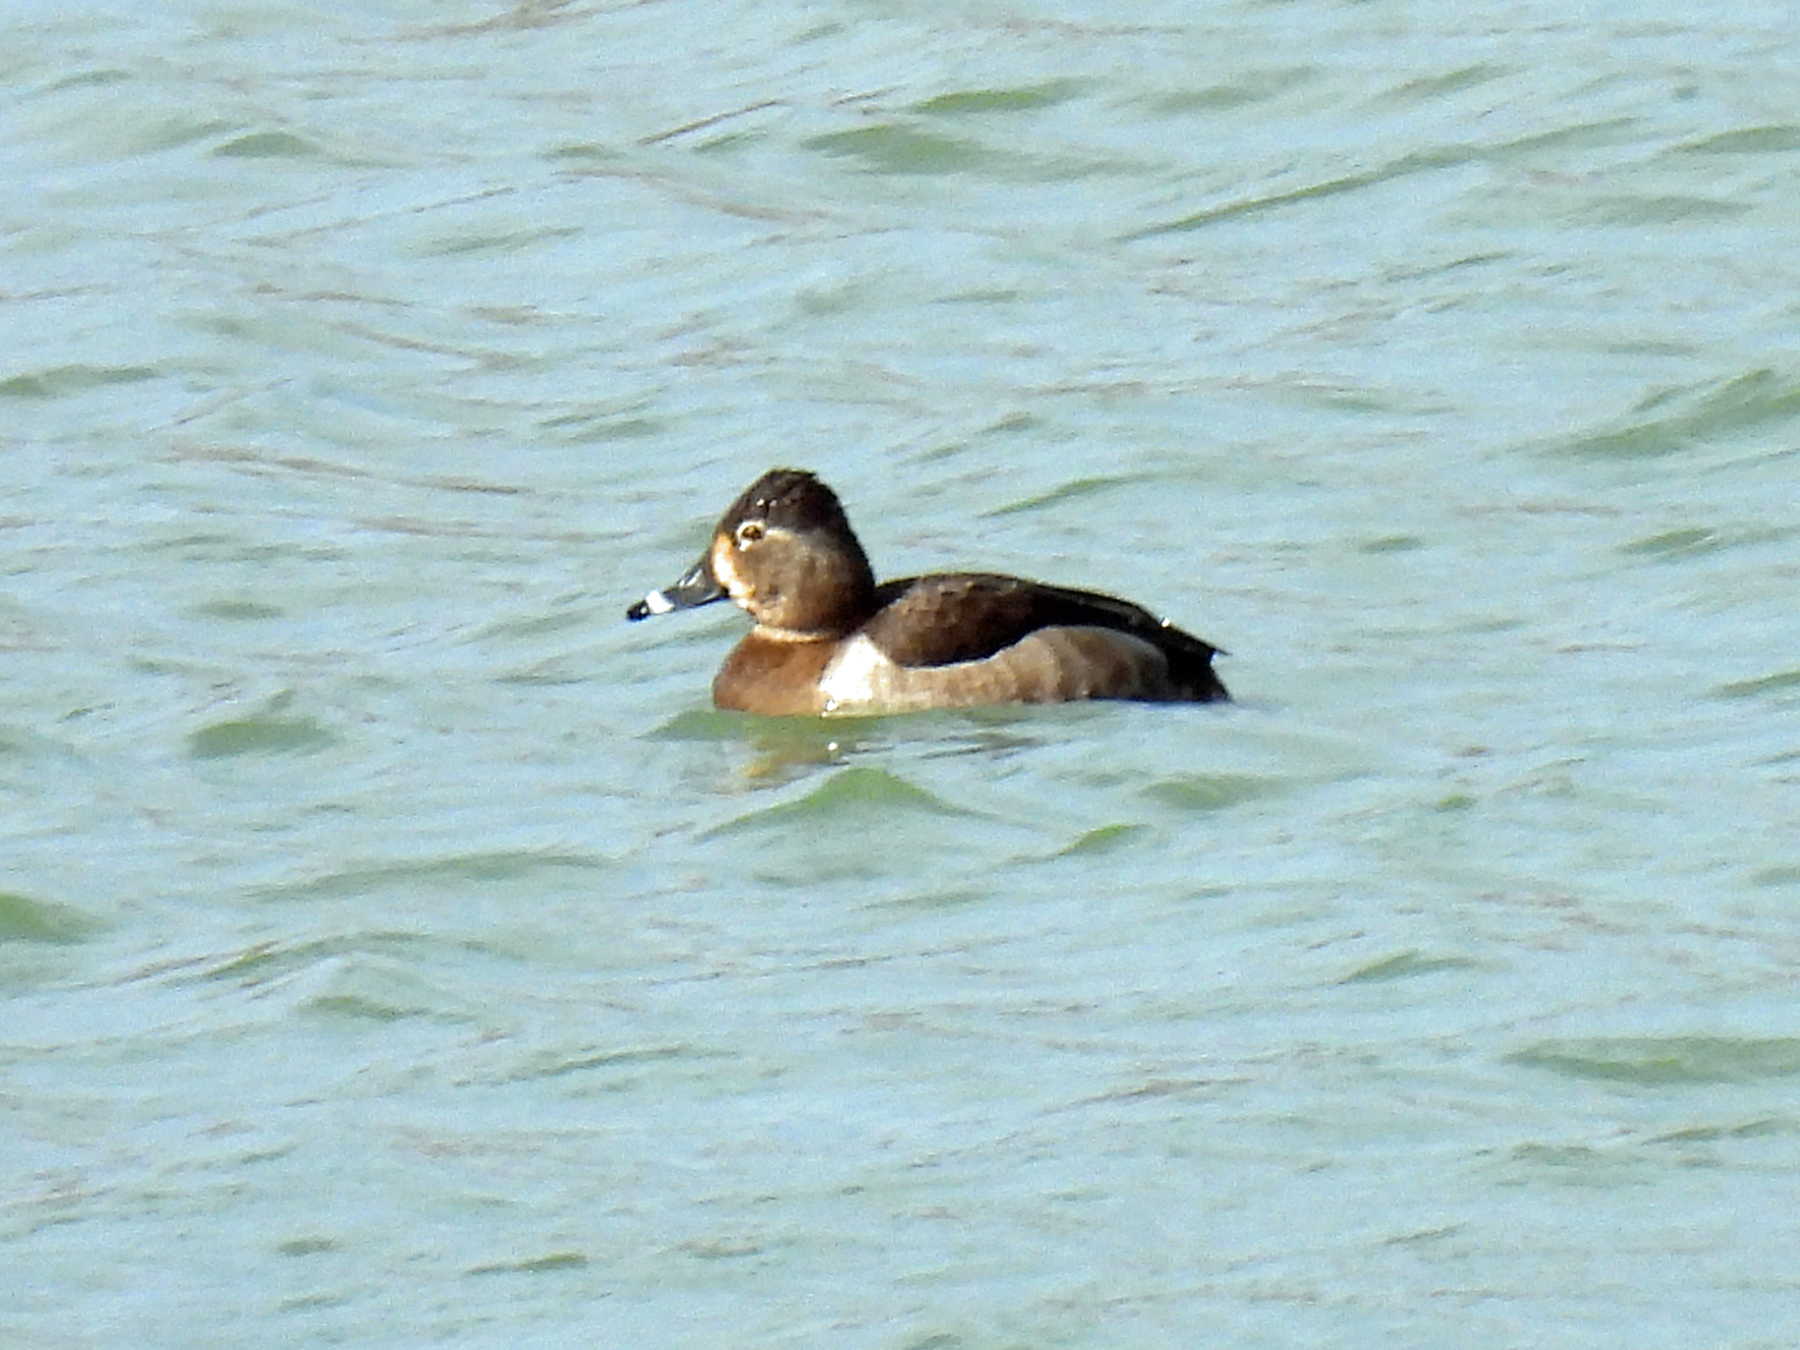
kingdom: Animalia
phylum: Chordata
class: Aves
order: Anseriformes
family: Anatidae
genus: Aythya
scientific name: Aythya collaris
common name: Ring-necked duck
